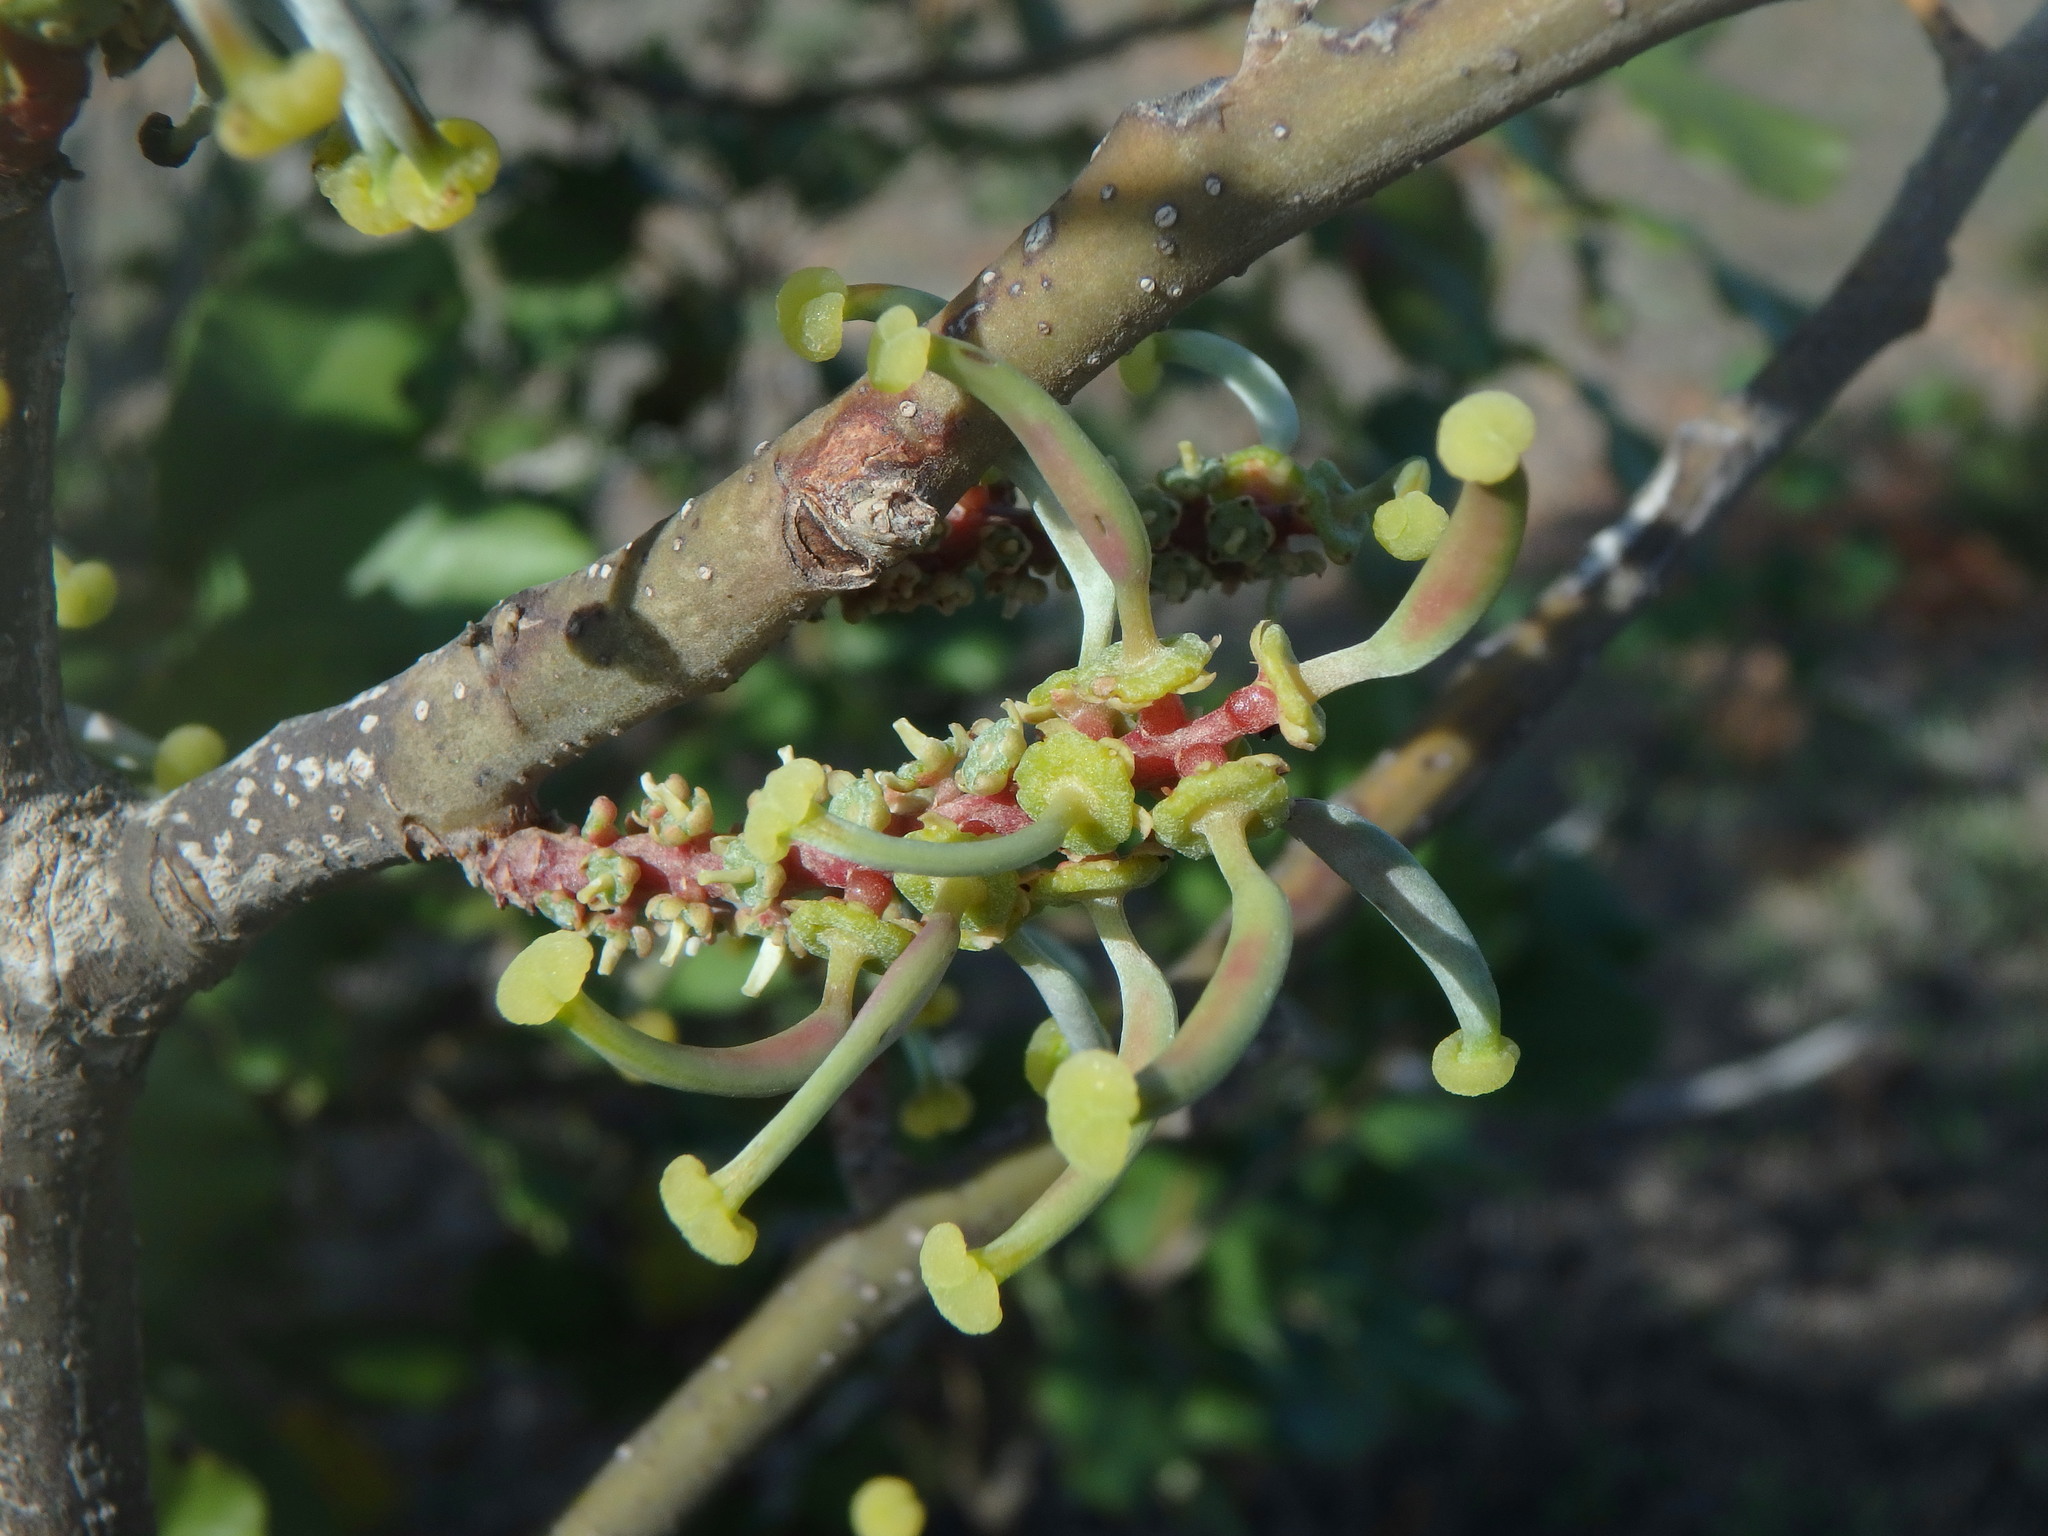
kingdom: Plantae
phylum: Tracheophyta
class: Magnoliopsida
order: Fabales
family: Fabaceae
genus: Ceratonia
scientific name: Ceratonia siliqua
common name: Carob
